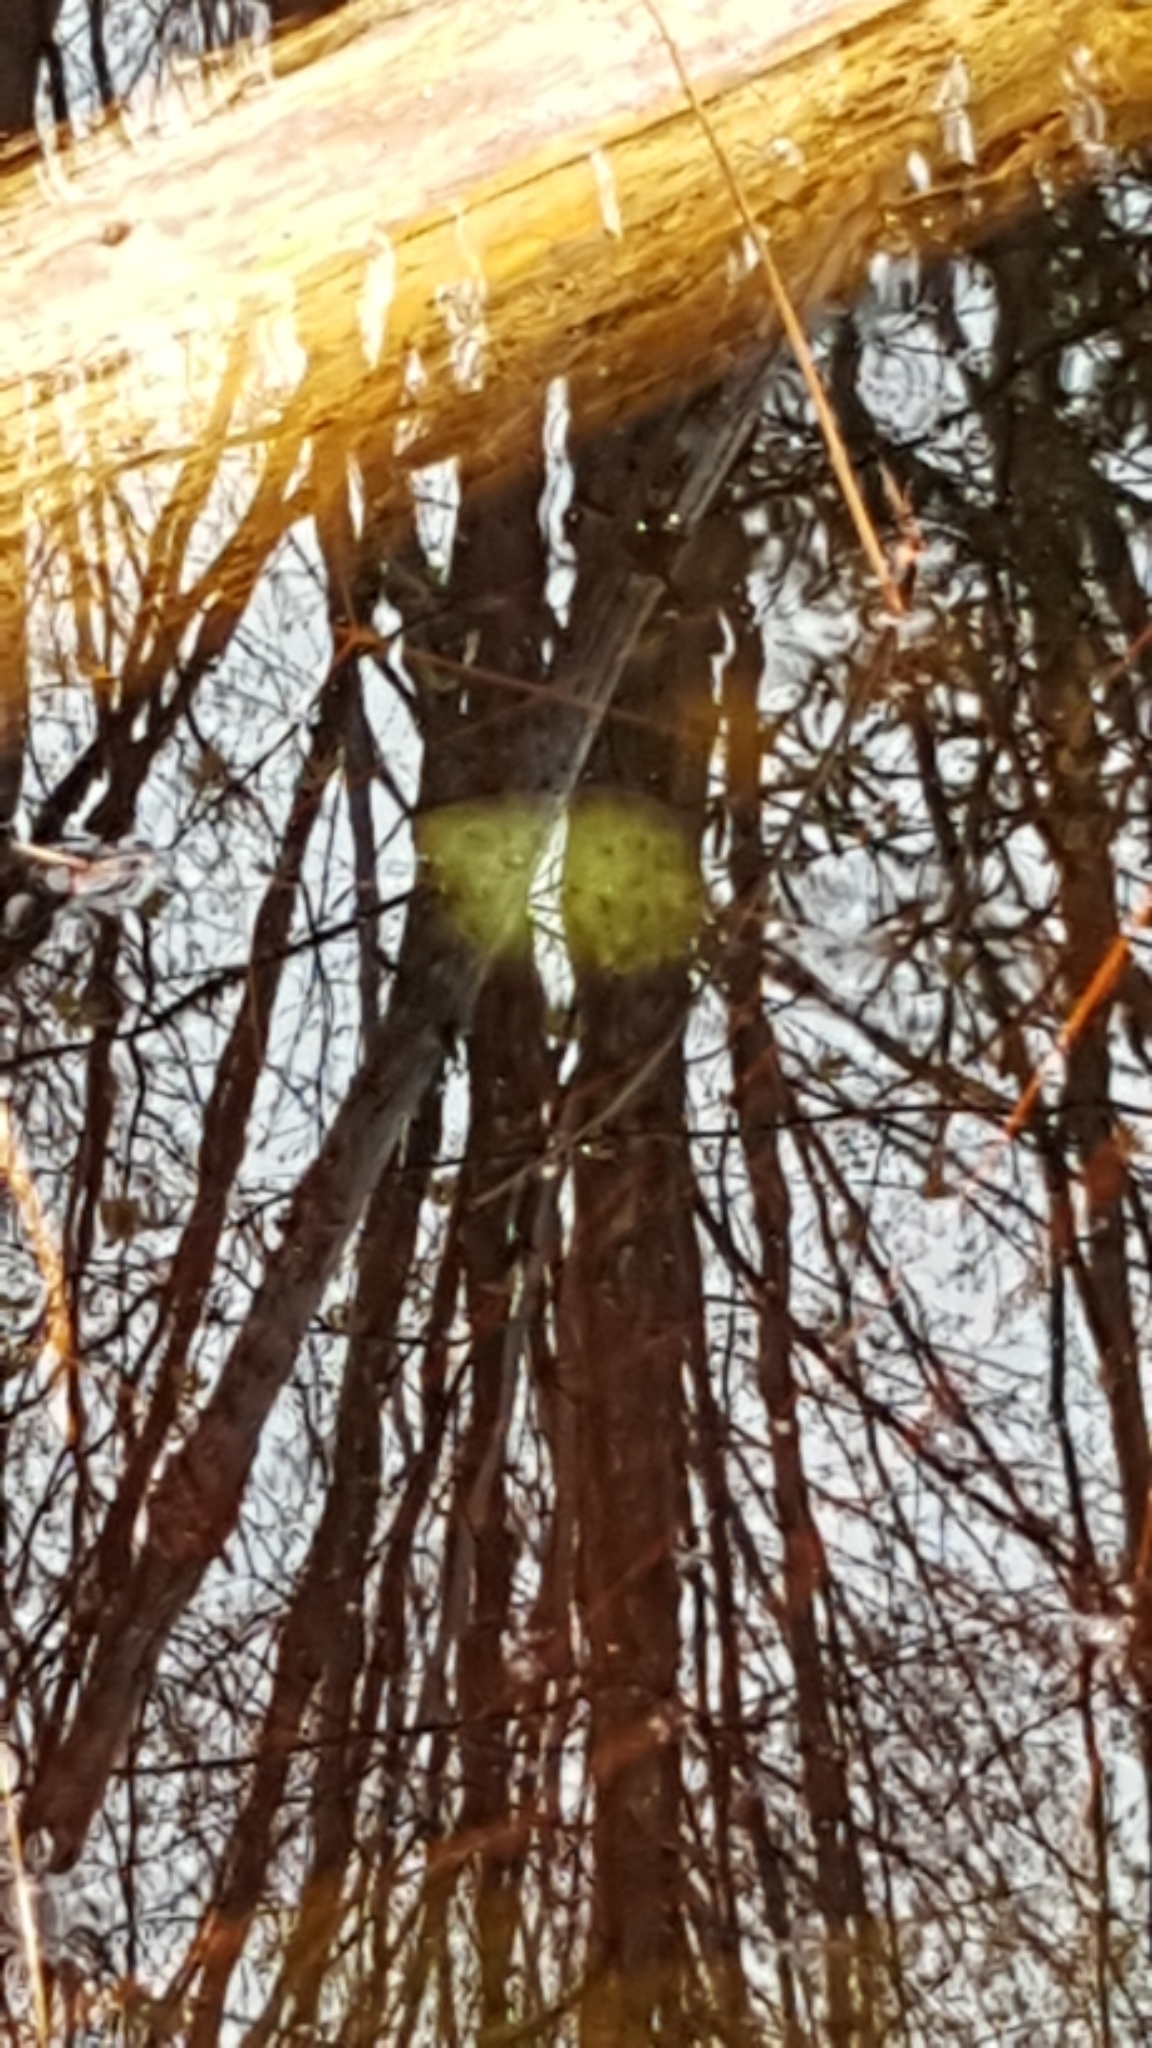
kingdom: Animalia
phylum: Chordata
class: Amphibia
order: Caudata
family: Ambystomatidae
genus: Ambystoma
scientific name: Ambystoma maculatum
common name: Spotted salamander
